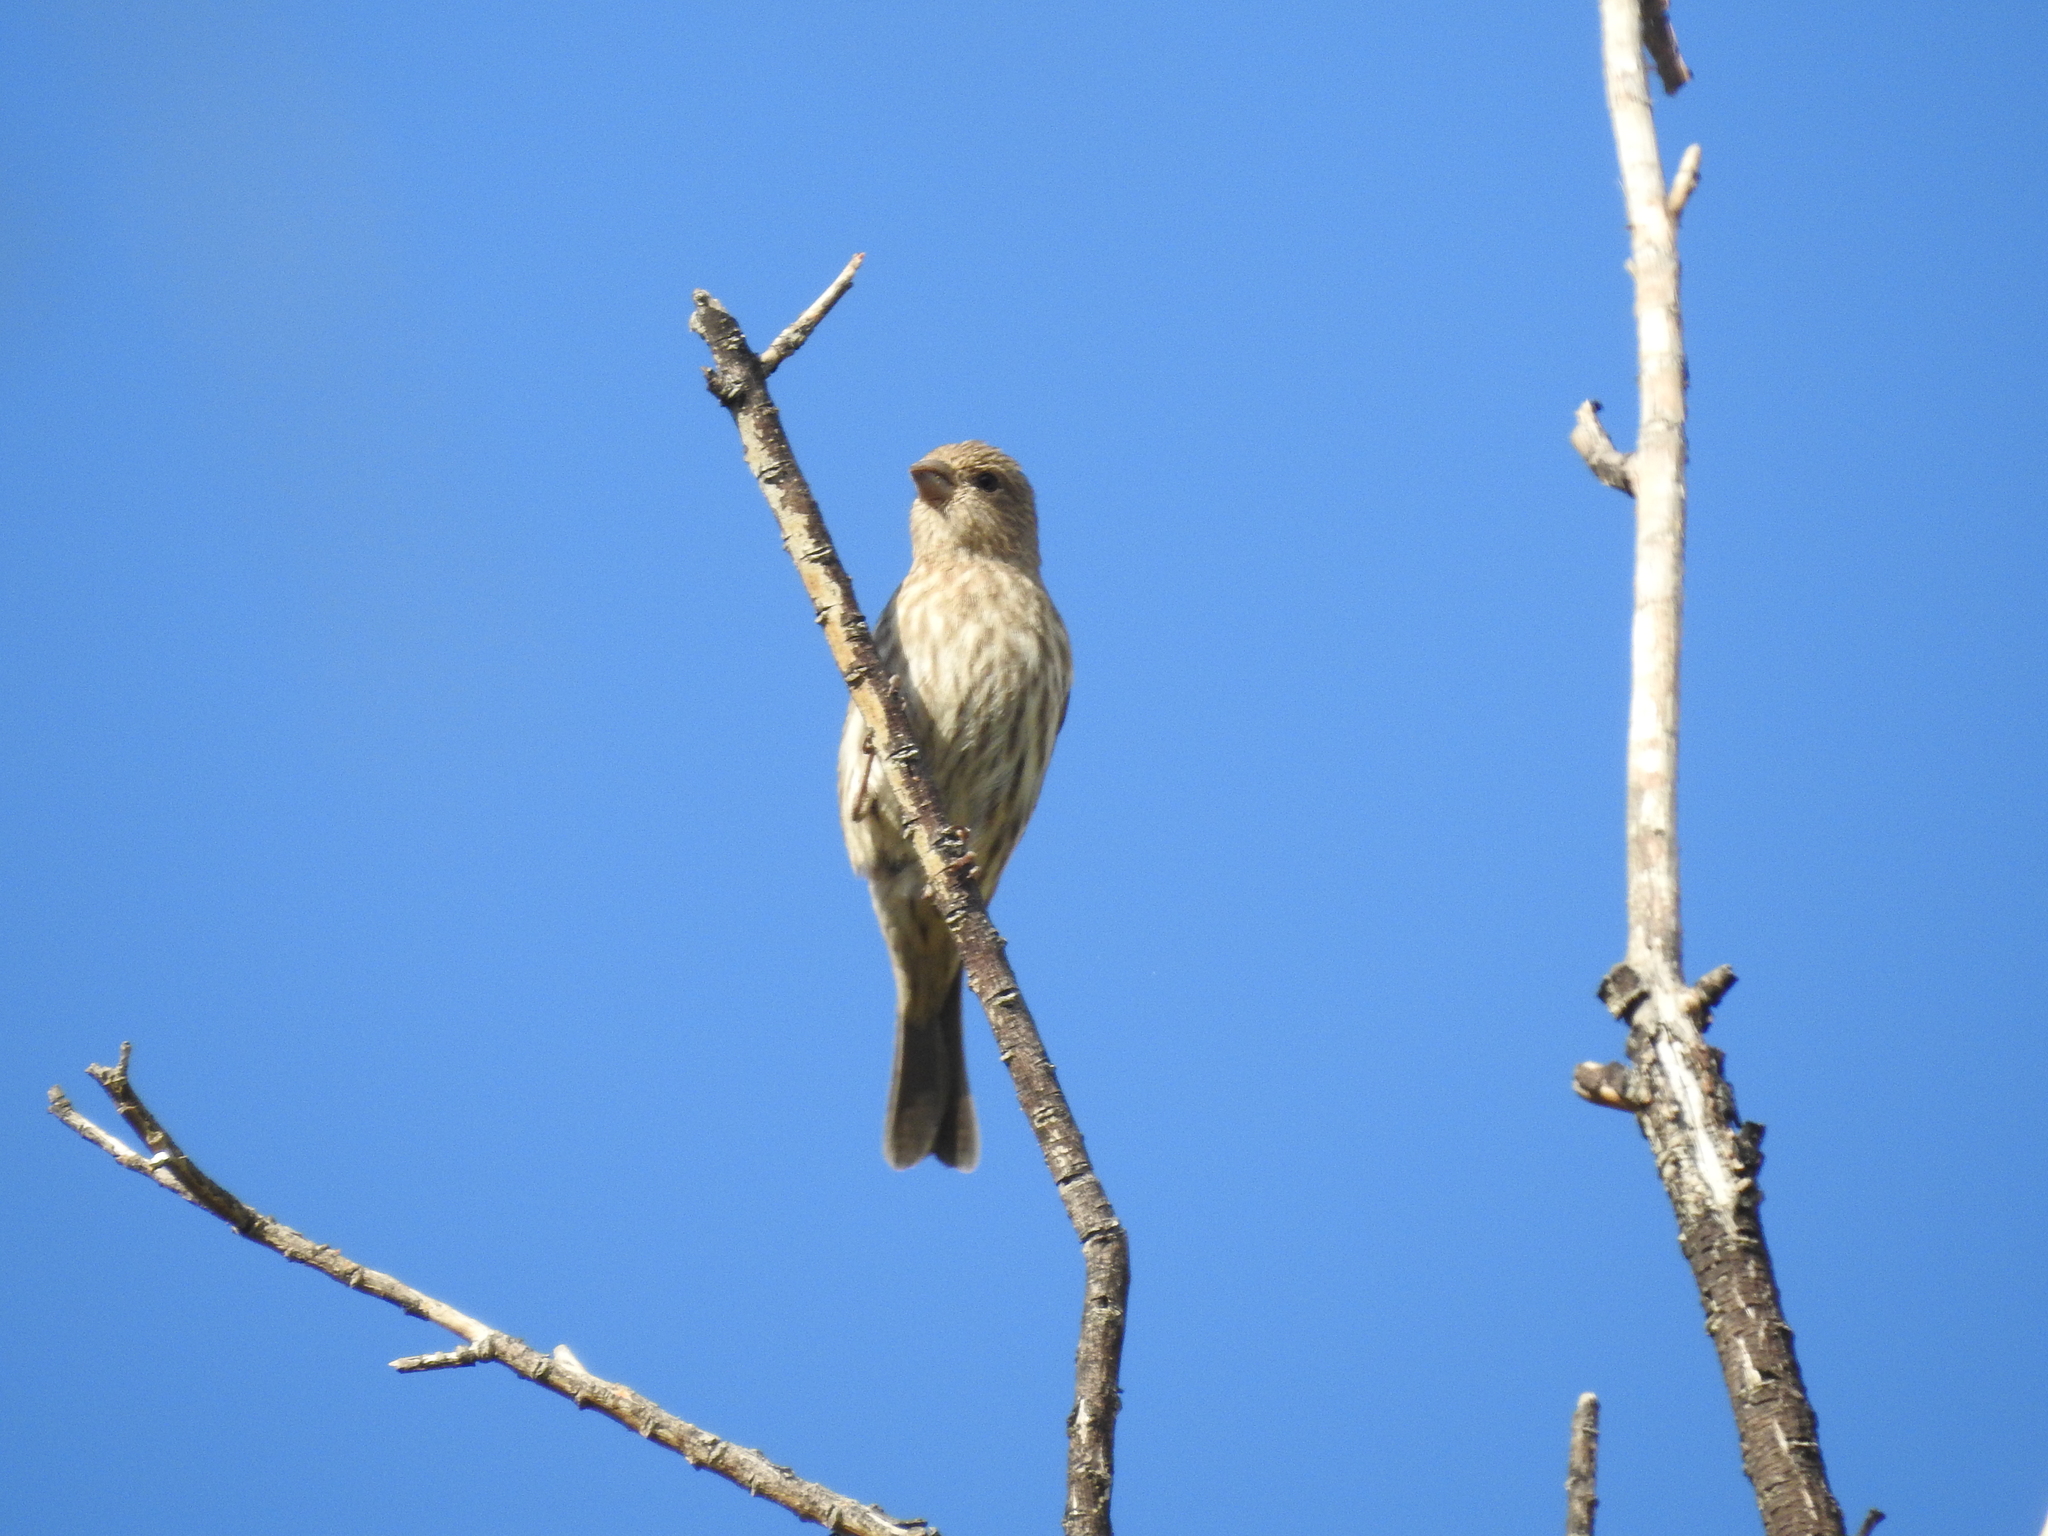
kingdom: Animalia
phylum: Chordata
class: Aves
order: Passeriformes
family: Fringillidae
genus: Haemorhous
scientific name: Haemorhous mexicanus
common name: House finch
